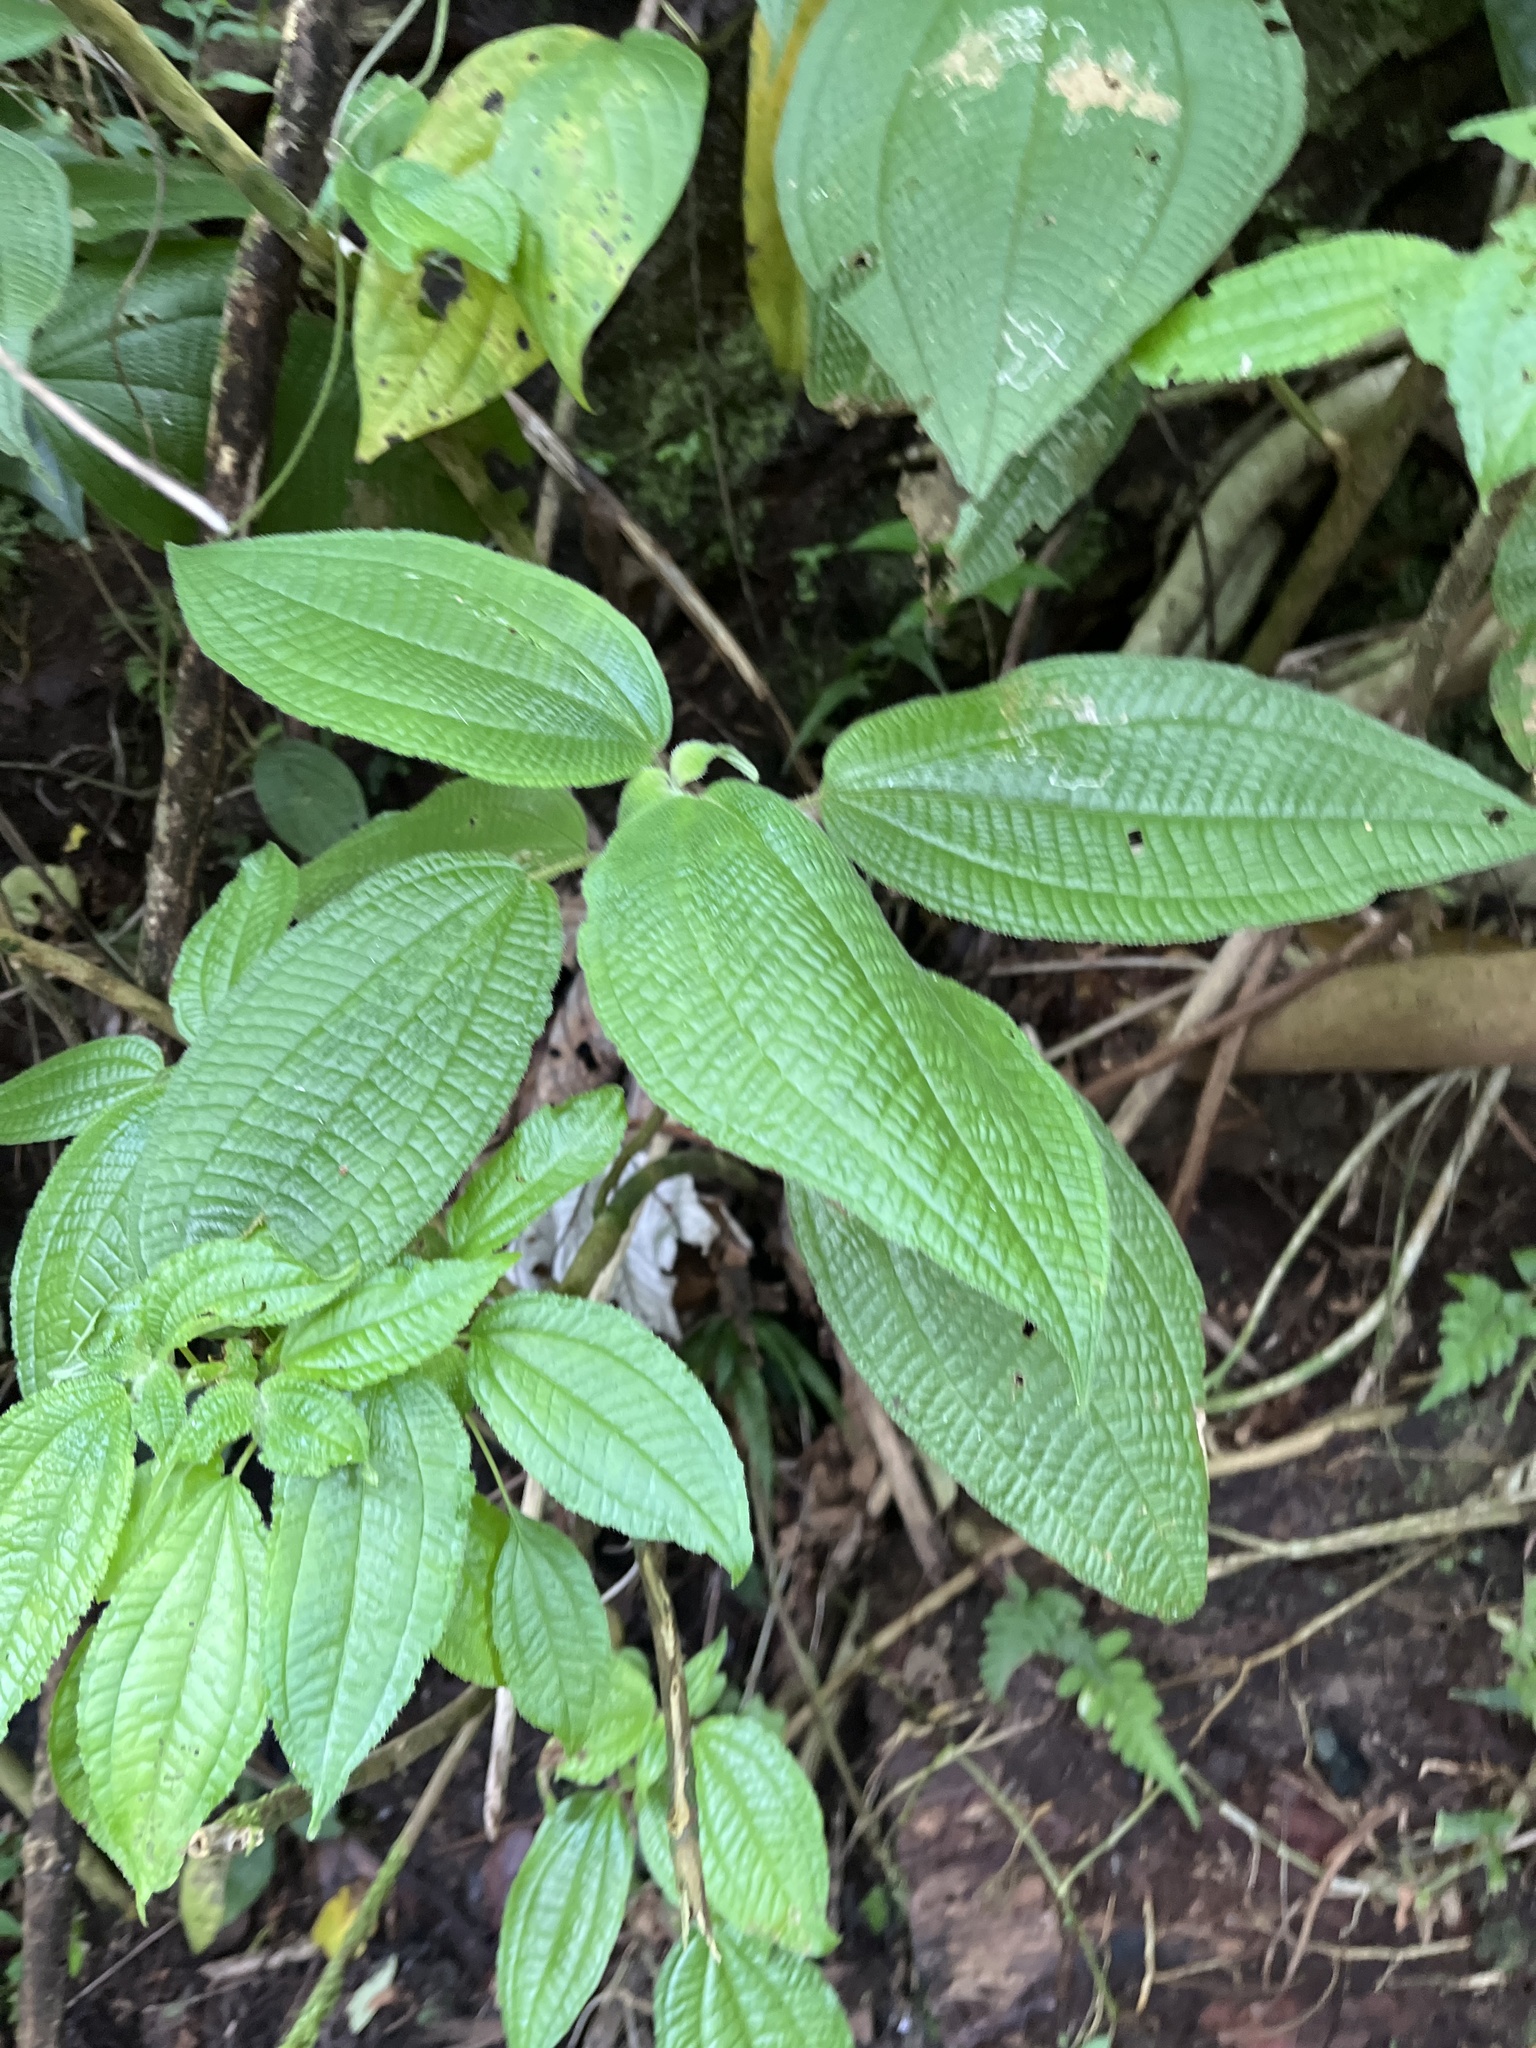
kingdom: Plantae
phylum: Tracheophyta
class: Magnoliopsida
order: Myrtales
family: Melastomataceae
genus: Miconia
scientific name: Miconia crenata
